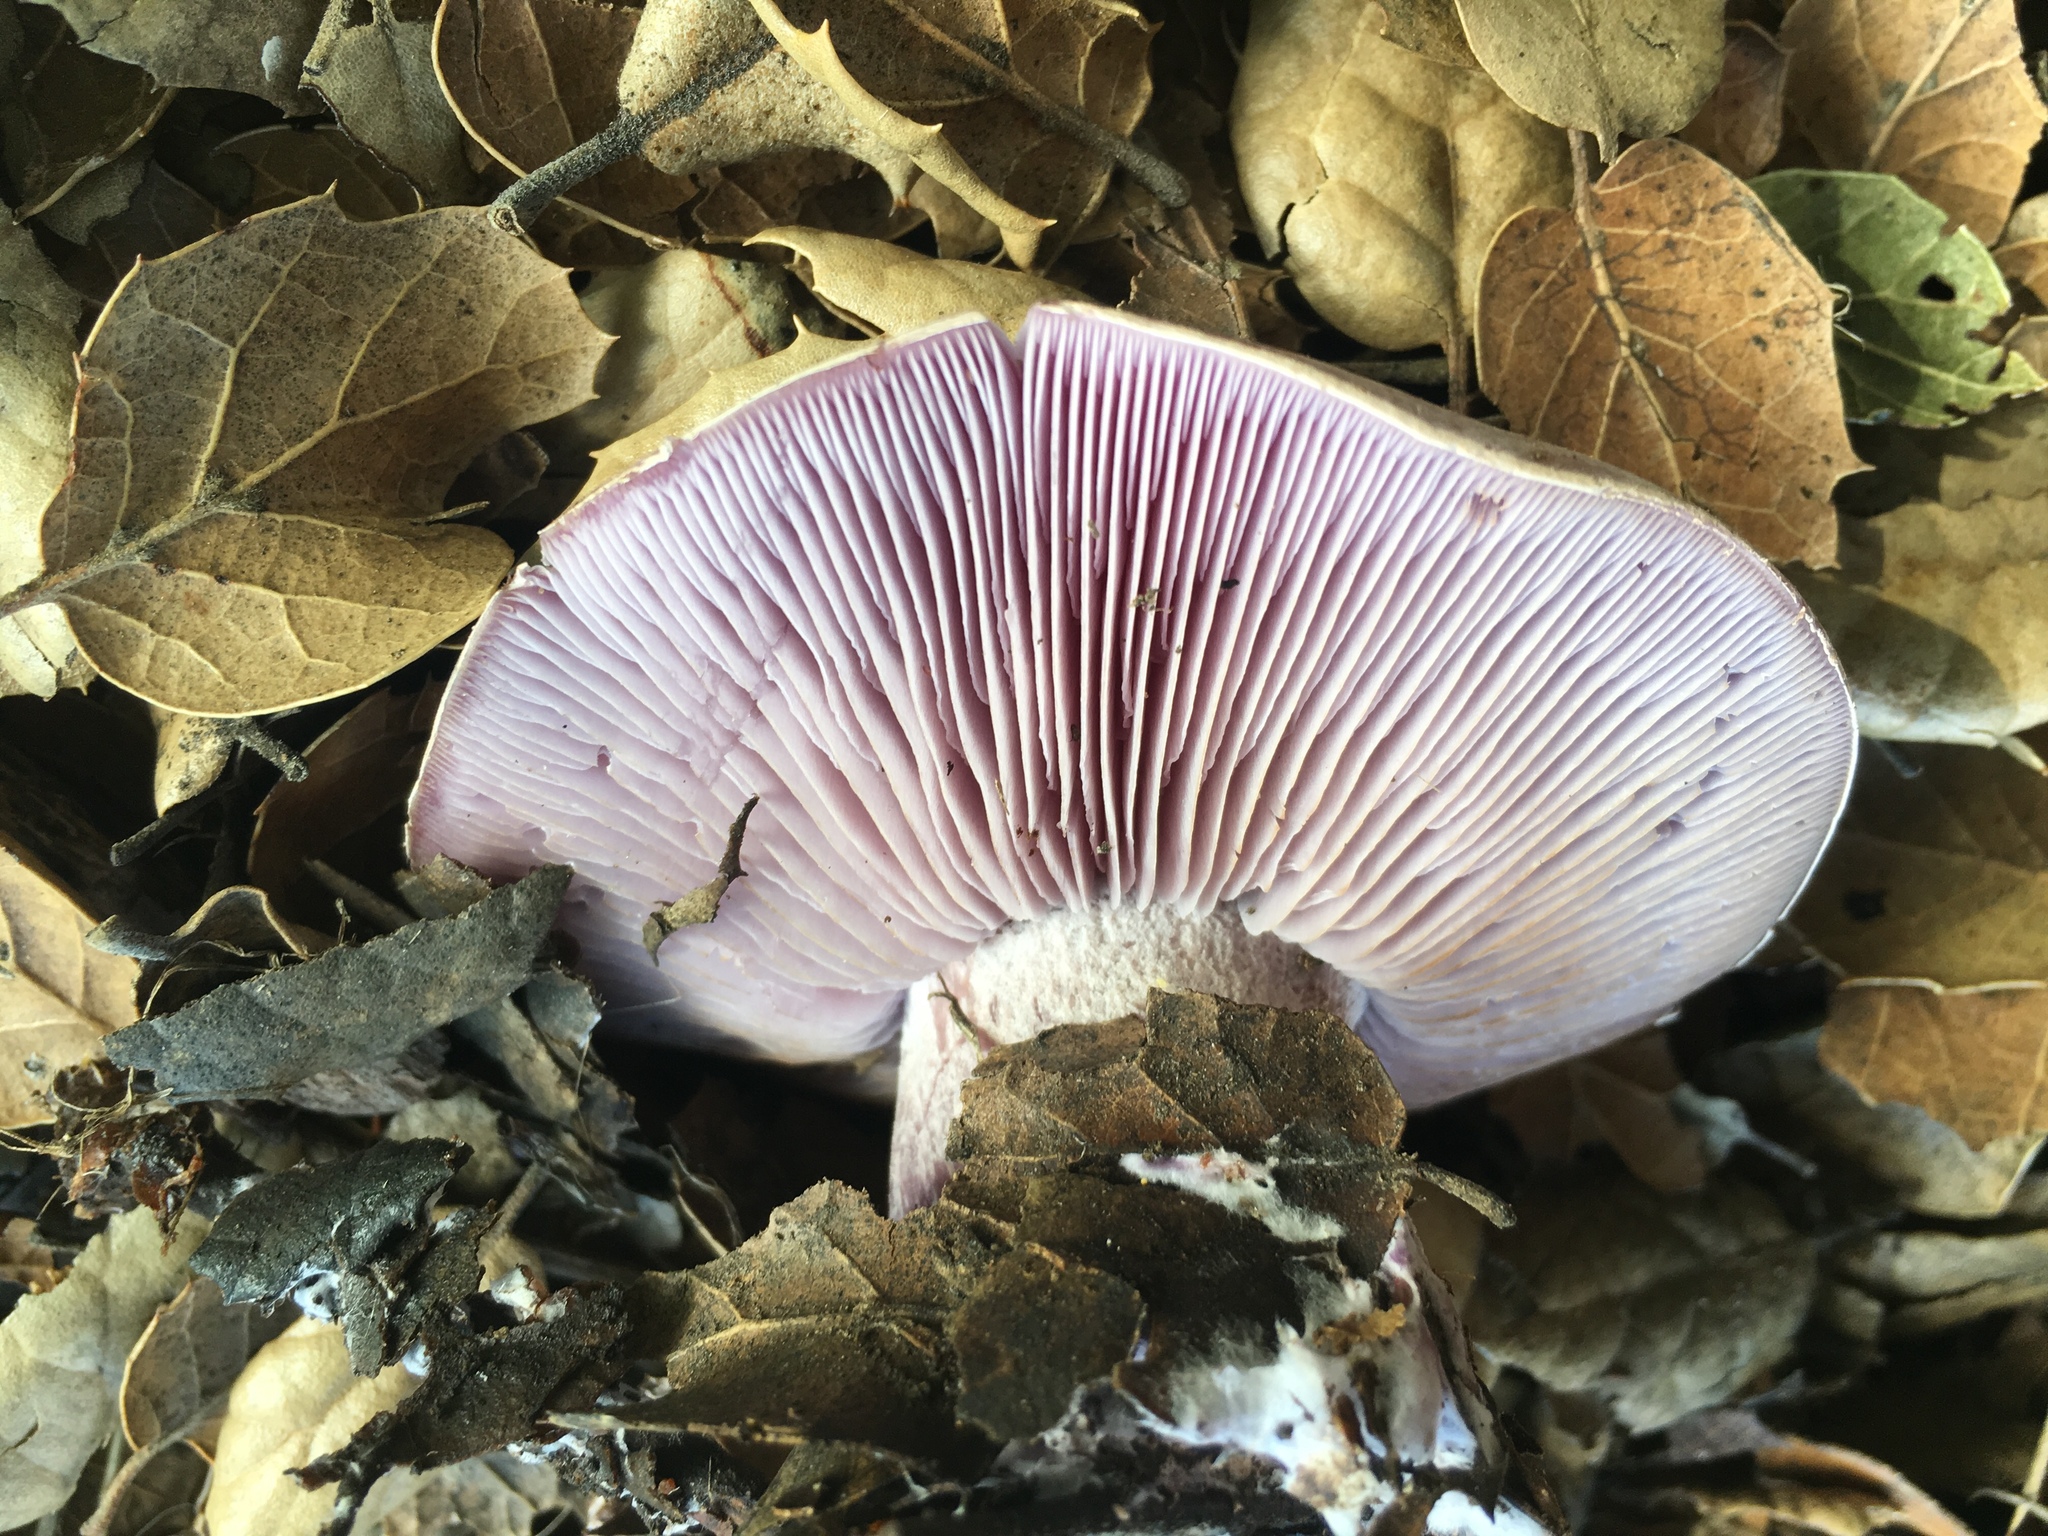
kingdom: Fungi
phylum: Basidiomycota
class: Agaricomycetes
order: Agaricales
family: Tricholomataceae
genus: Collybia
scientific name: Collybia
